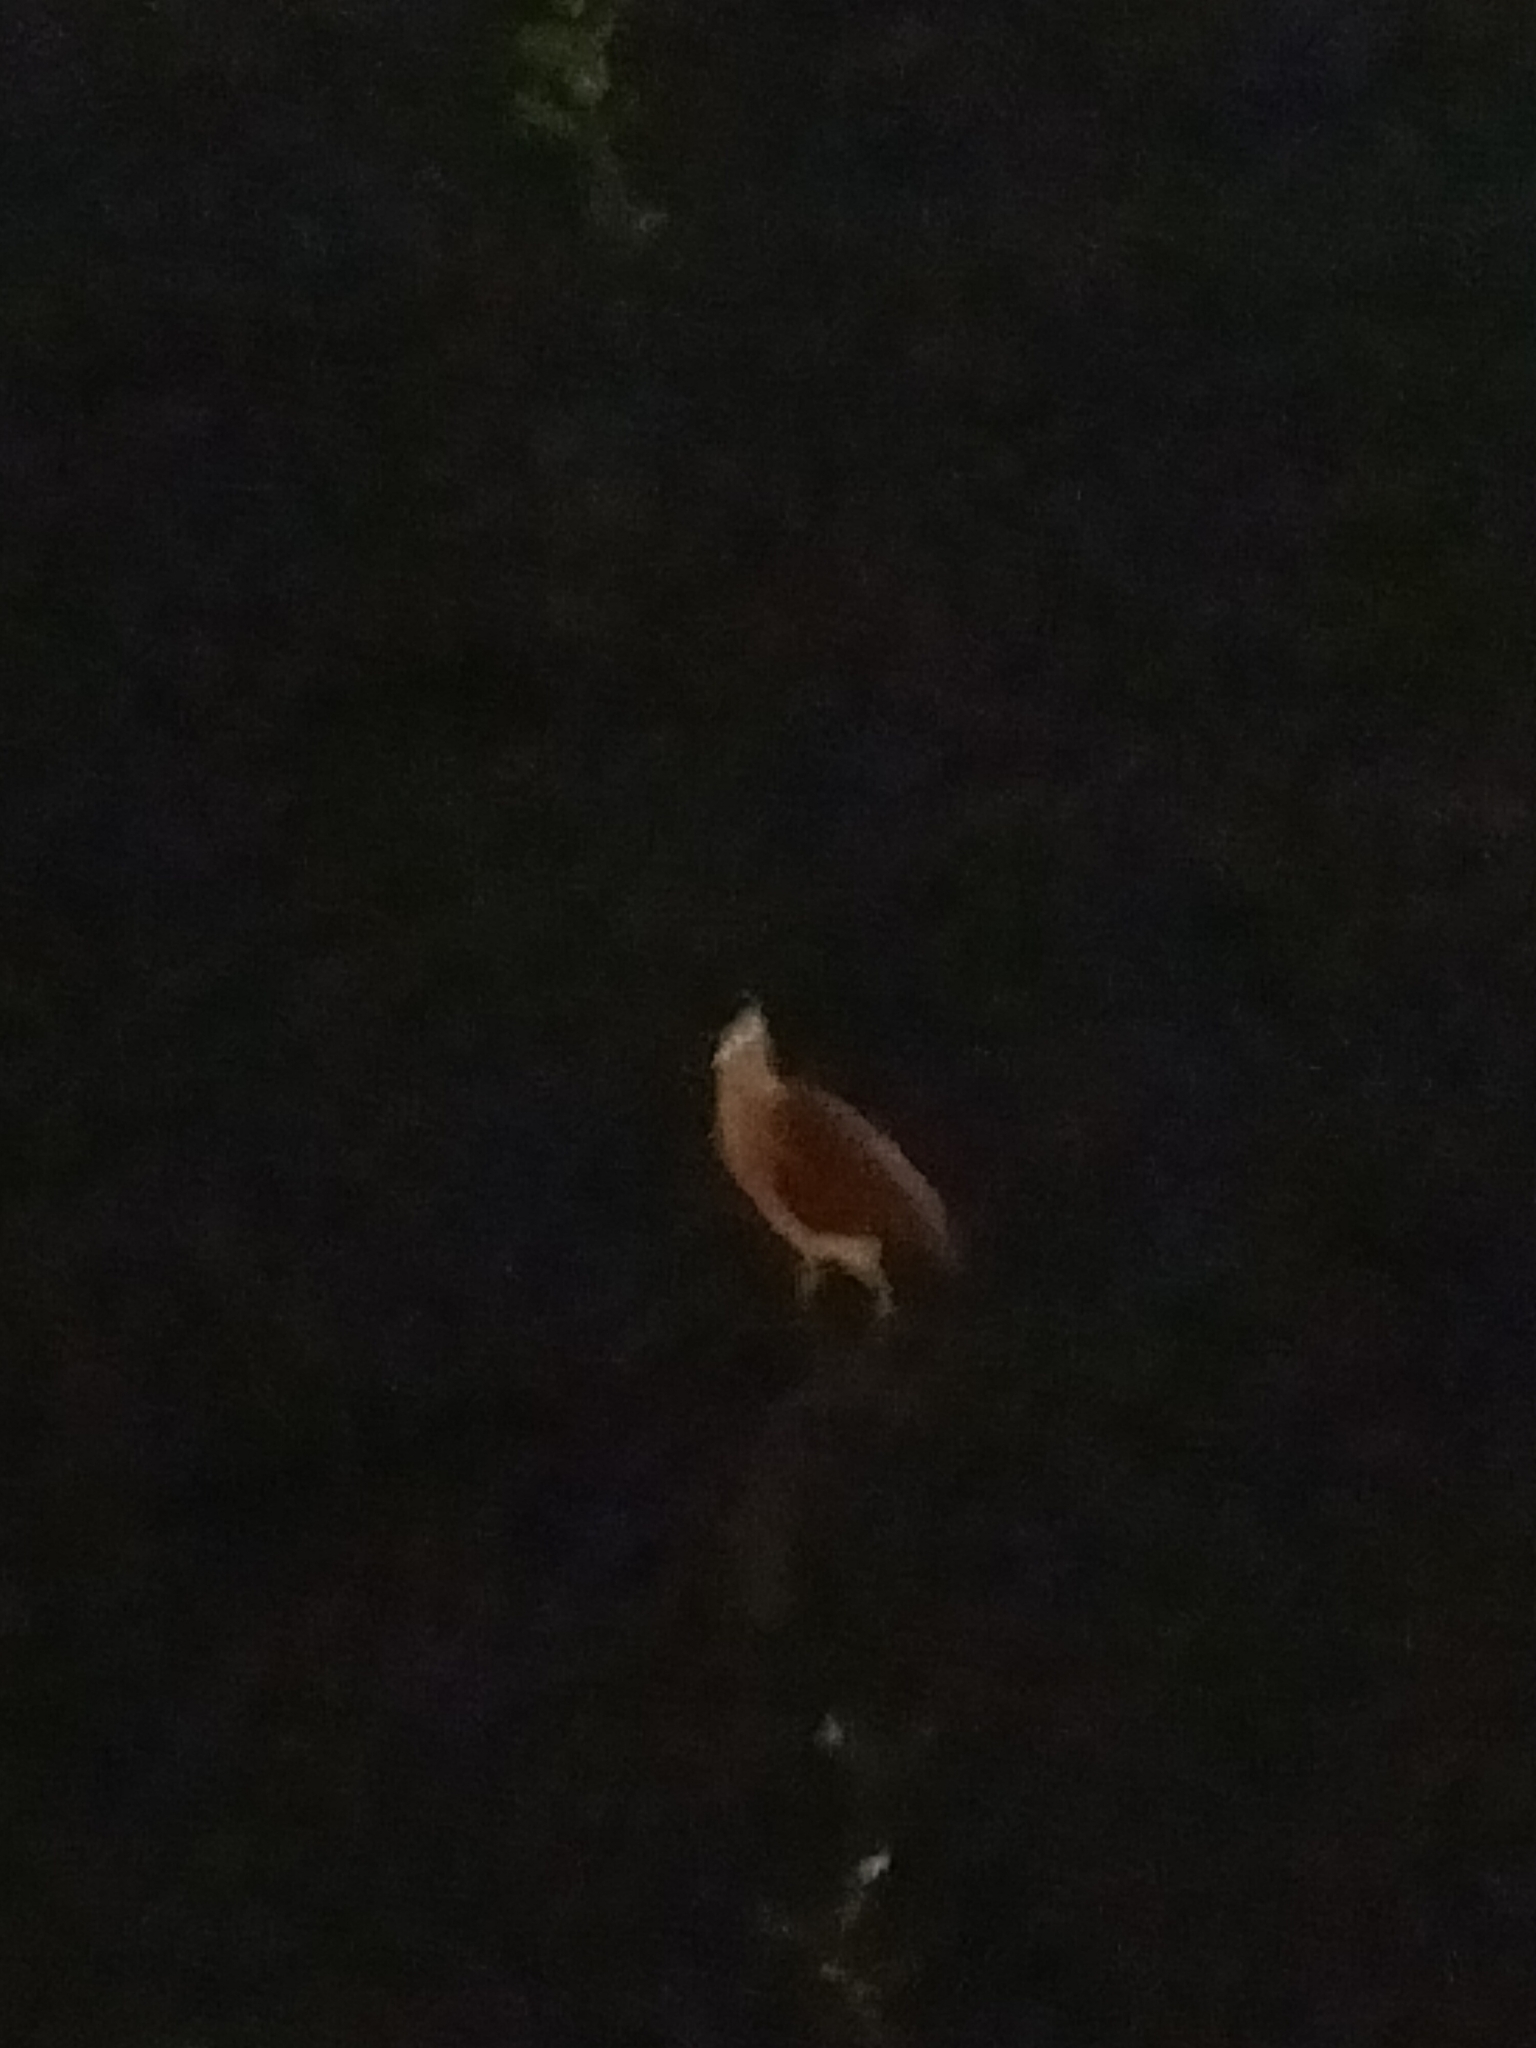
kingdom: Animalia
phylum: Chordata
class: Aves
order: Pelecaniformes
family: Ardeidae
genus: Nycticorax
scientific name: Nycticorax caledonicus
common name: Rufous night-heron
